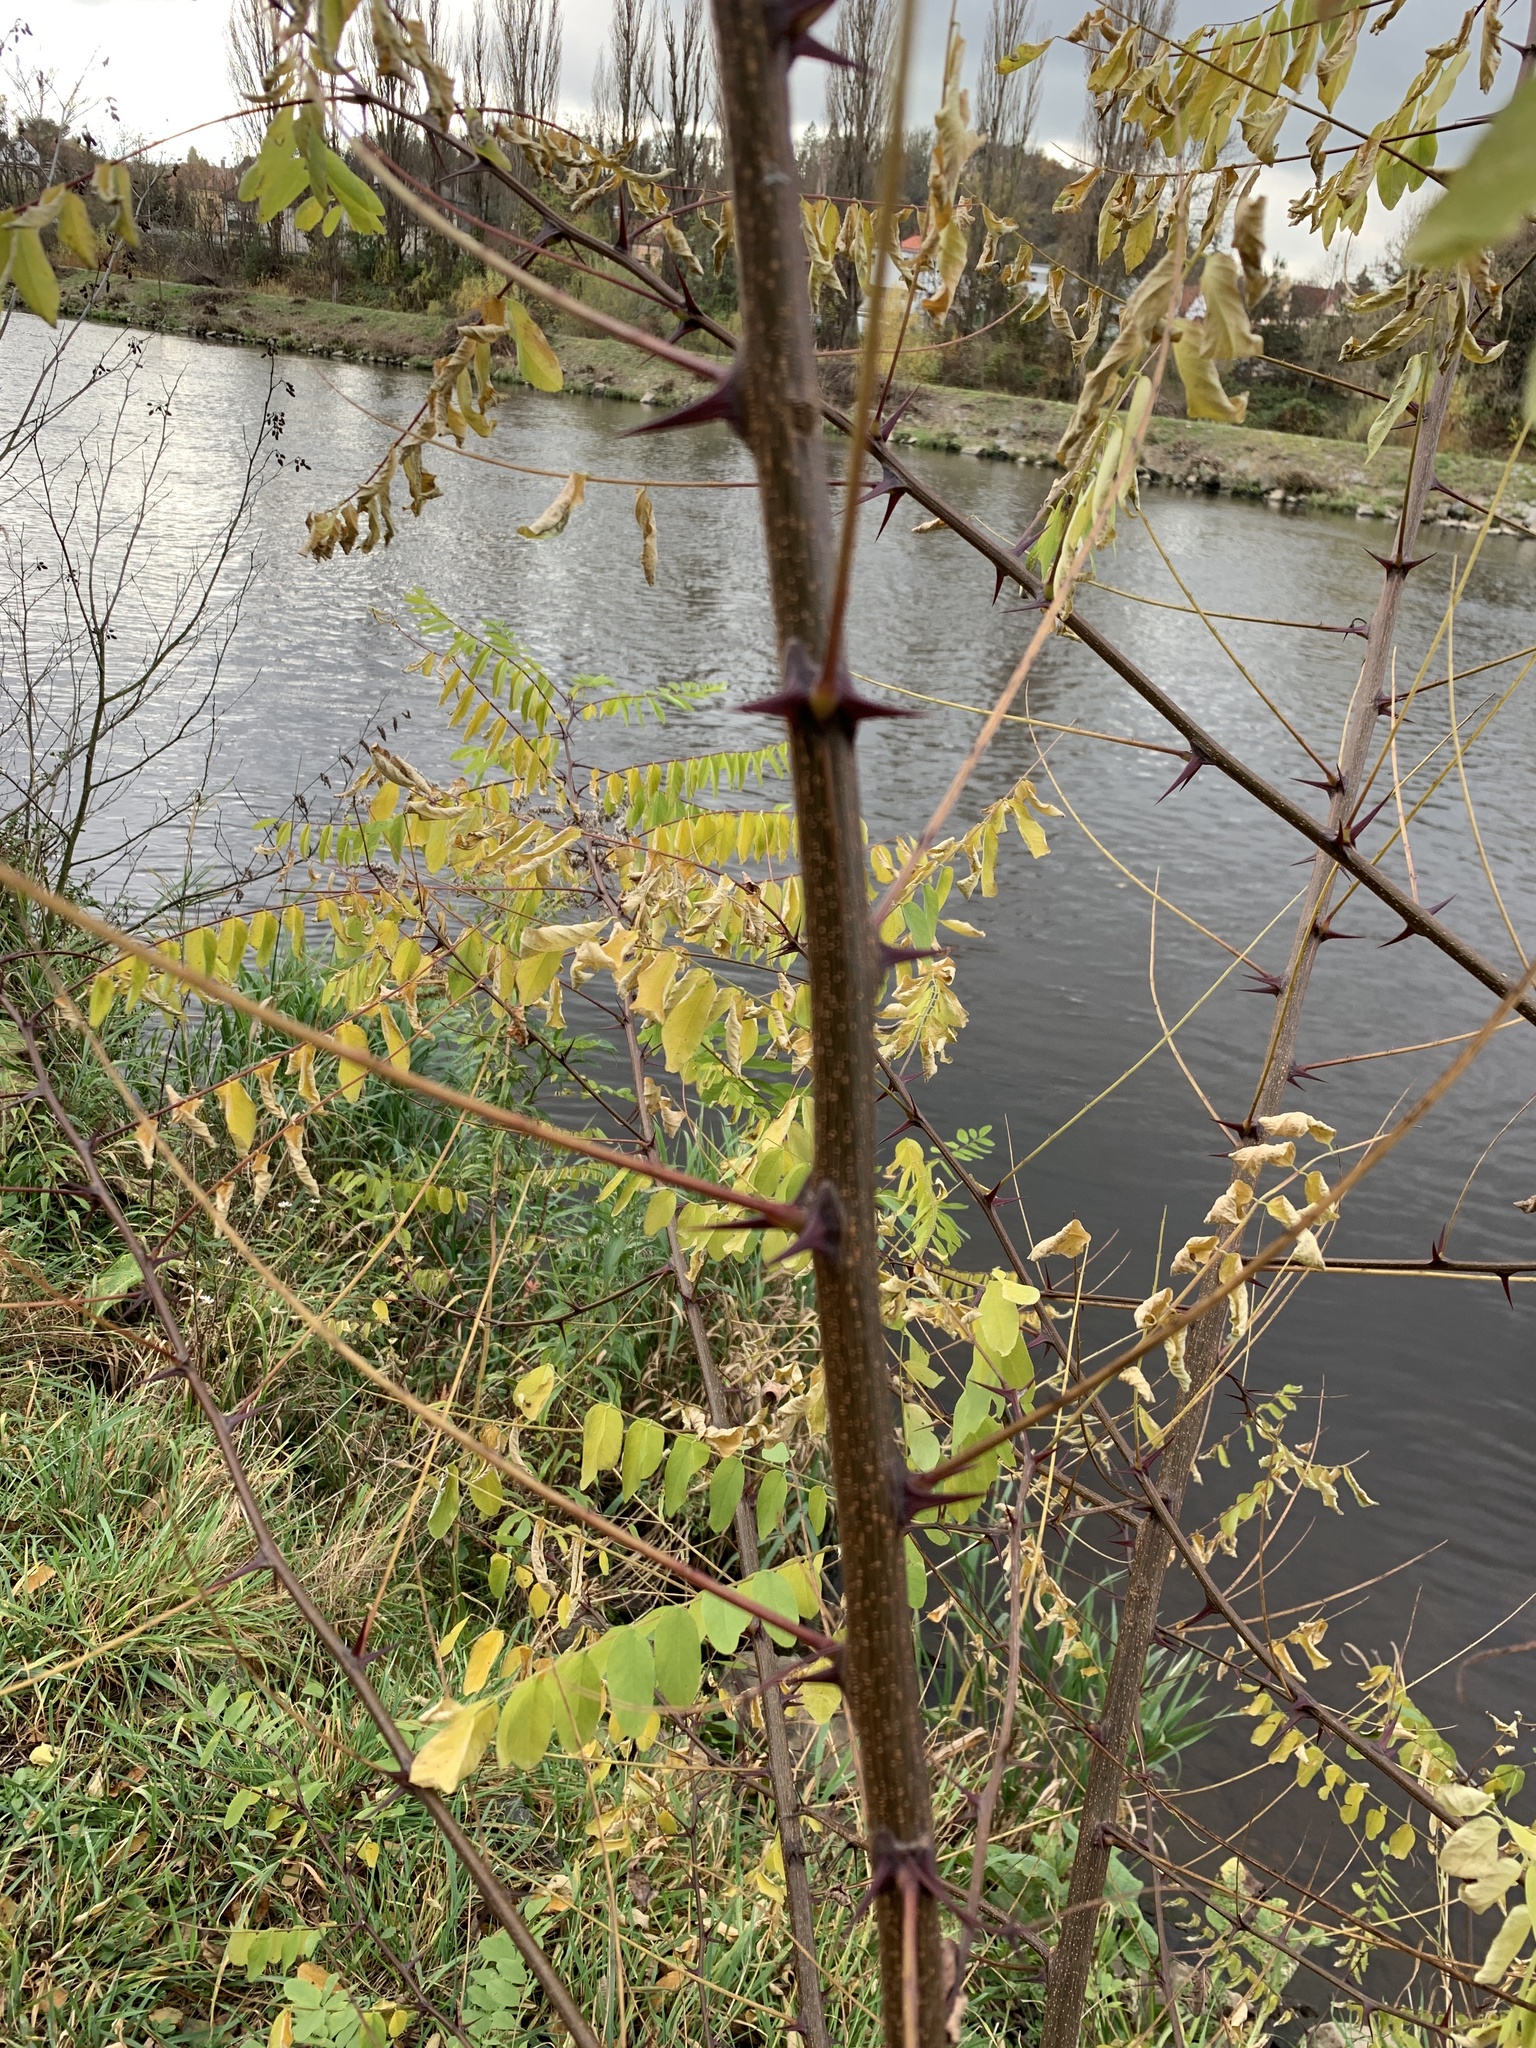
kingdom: Plantae
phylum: Tracheophyta
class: Magnoliopsida
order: Fabales
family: Fabaceae
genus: Robinia
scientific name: Robinia pseudoacacia
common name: Black locust
